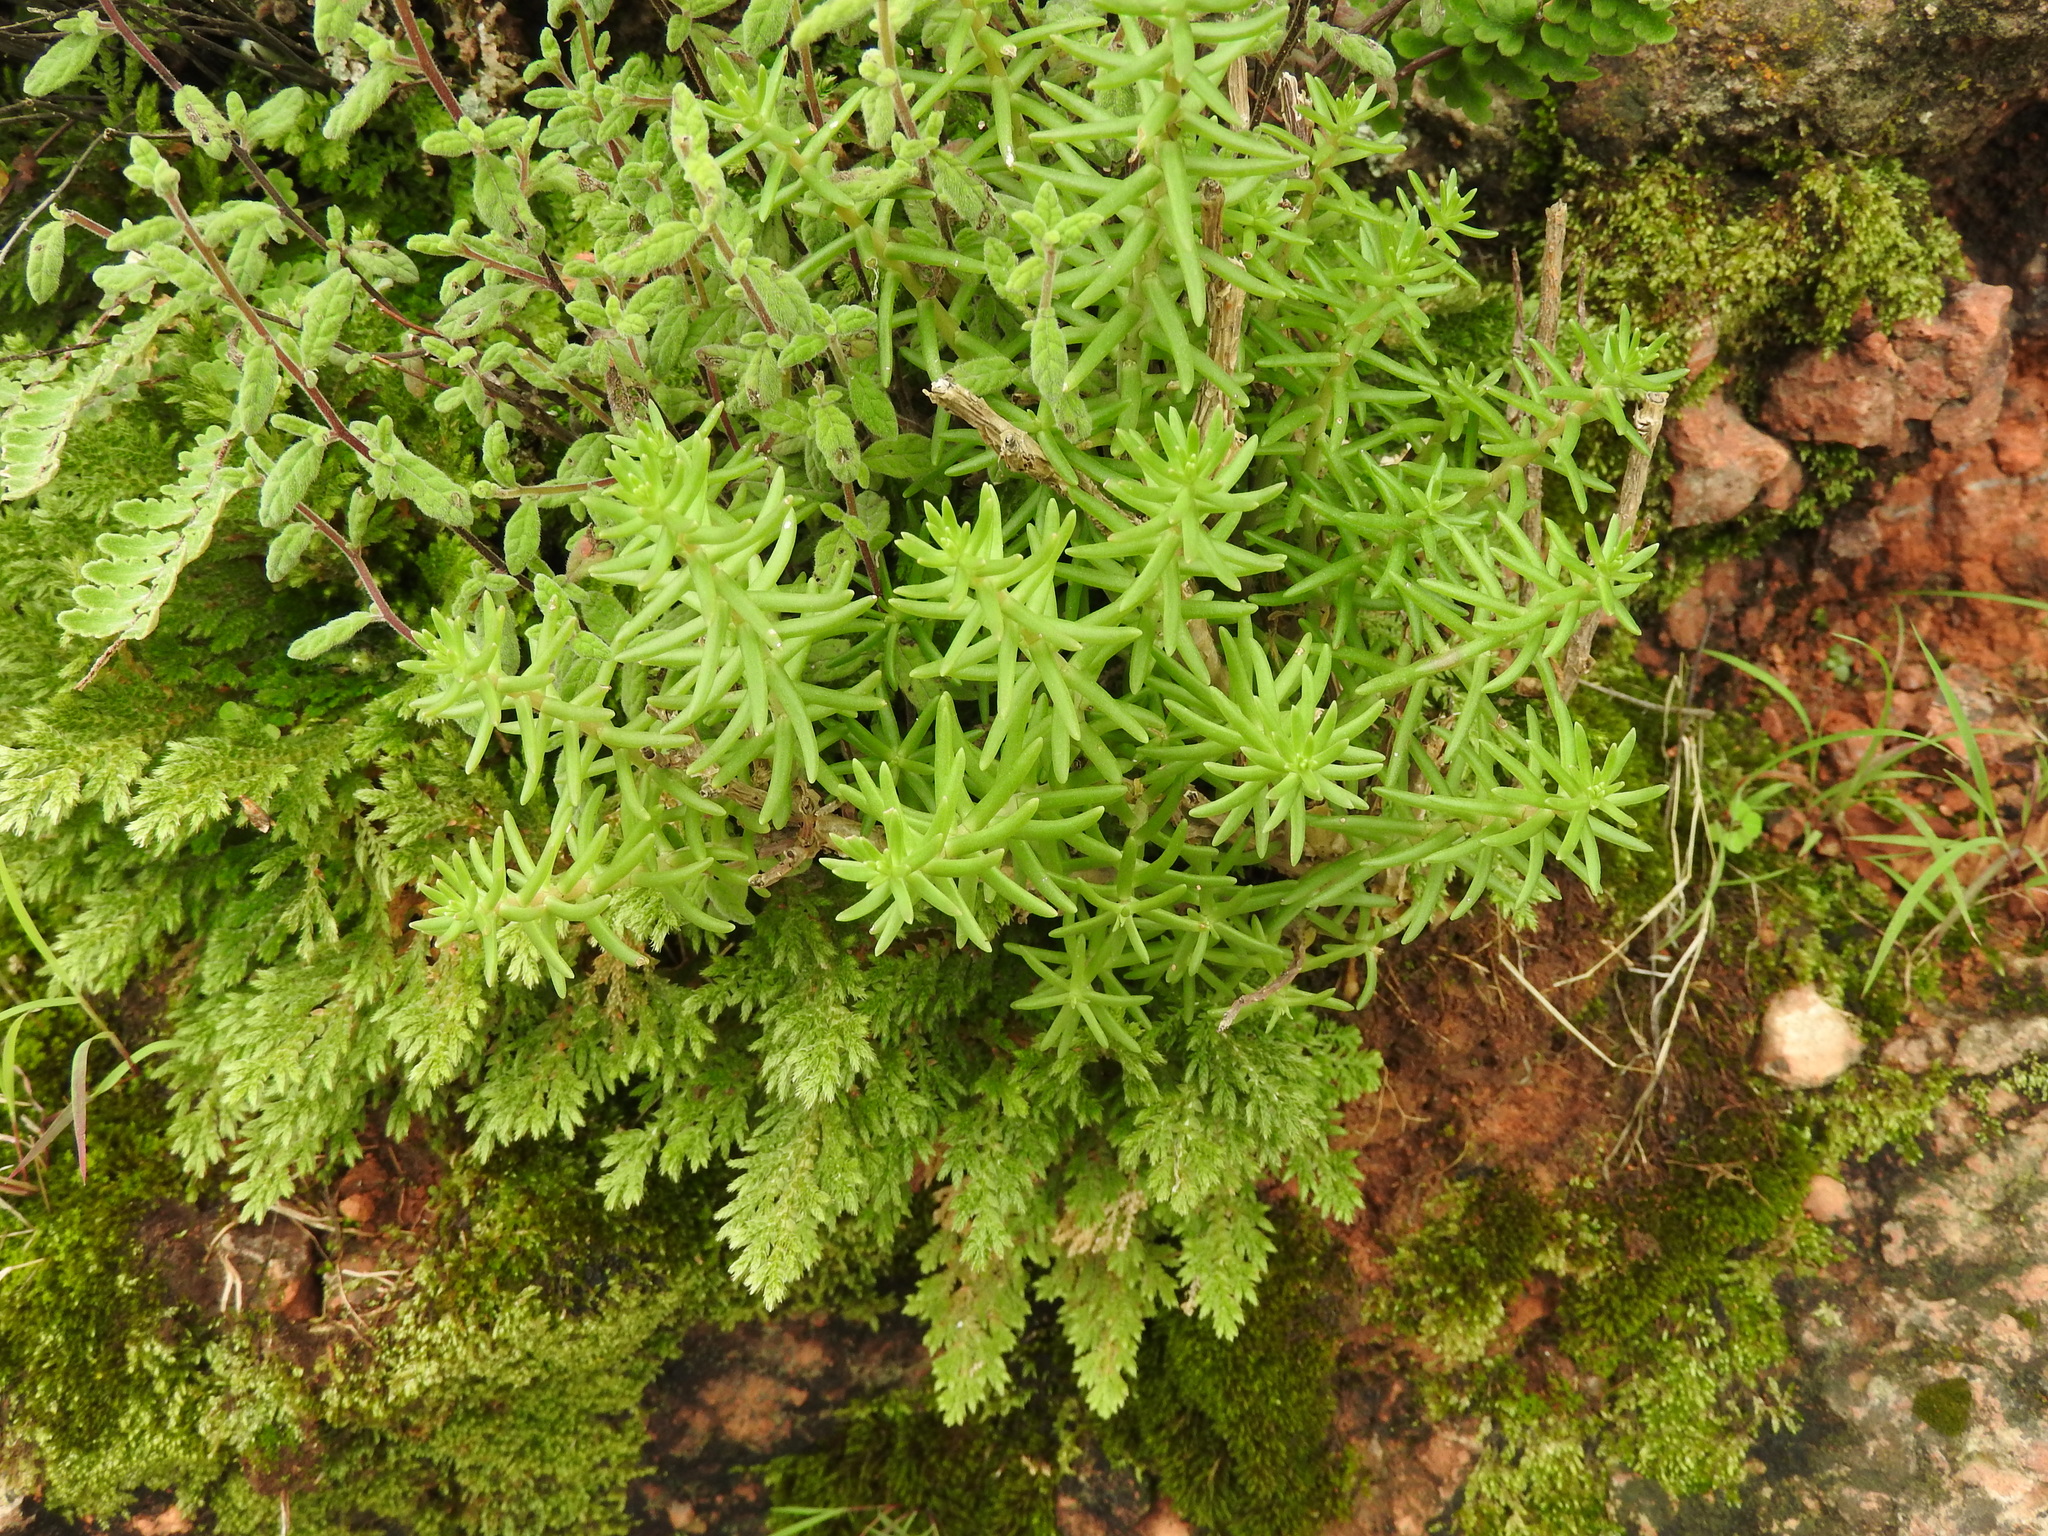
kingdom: Plantae
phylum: Tracheophyta
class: Magnoliopsida
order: Saxifragales
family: Crassulaceae
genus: Sedum
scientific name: Sedum bourgaei
